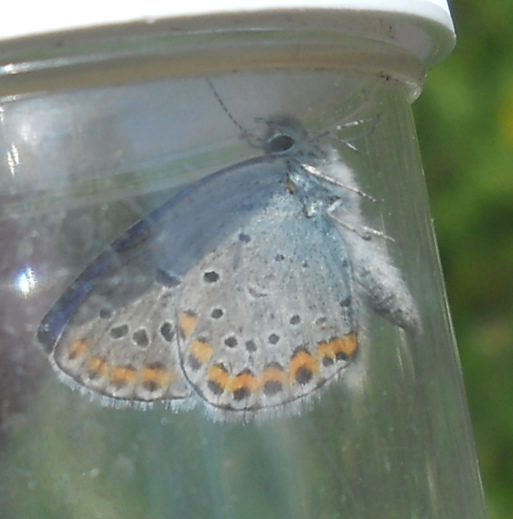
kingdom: Animalia
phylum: Arthropoda
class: Insecta
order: Lepidoptera
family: Lycaenidae
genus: Plebejus
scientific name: Plebejus argyrognomon
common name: Reverdin's blue
